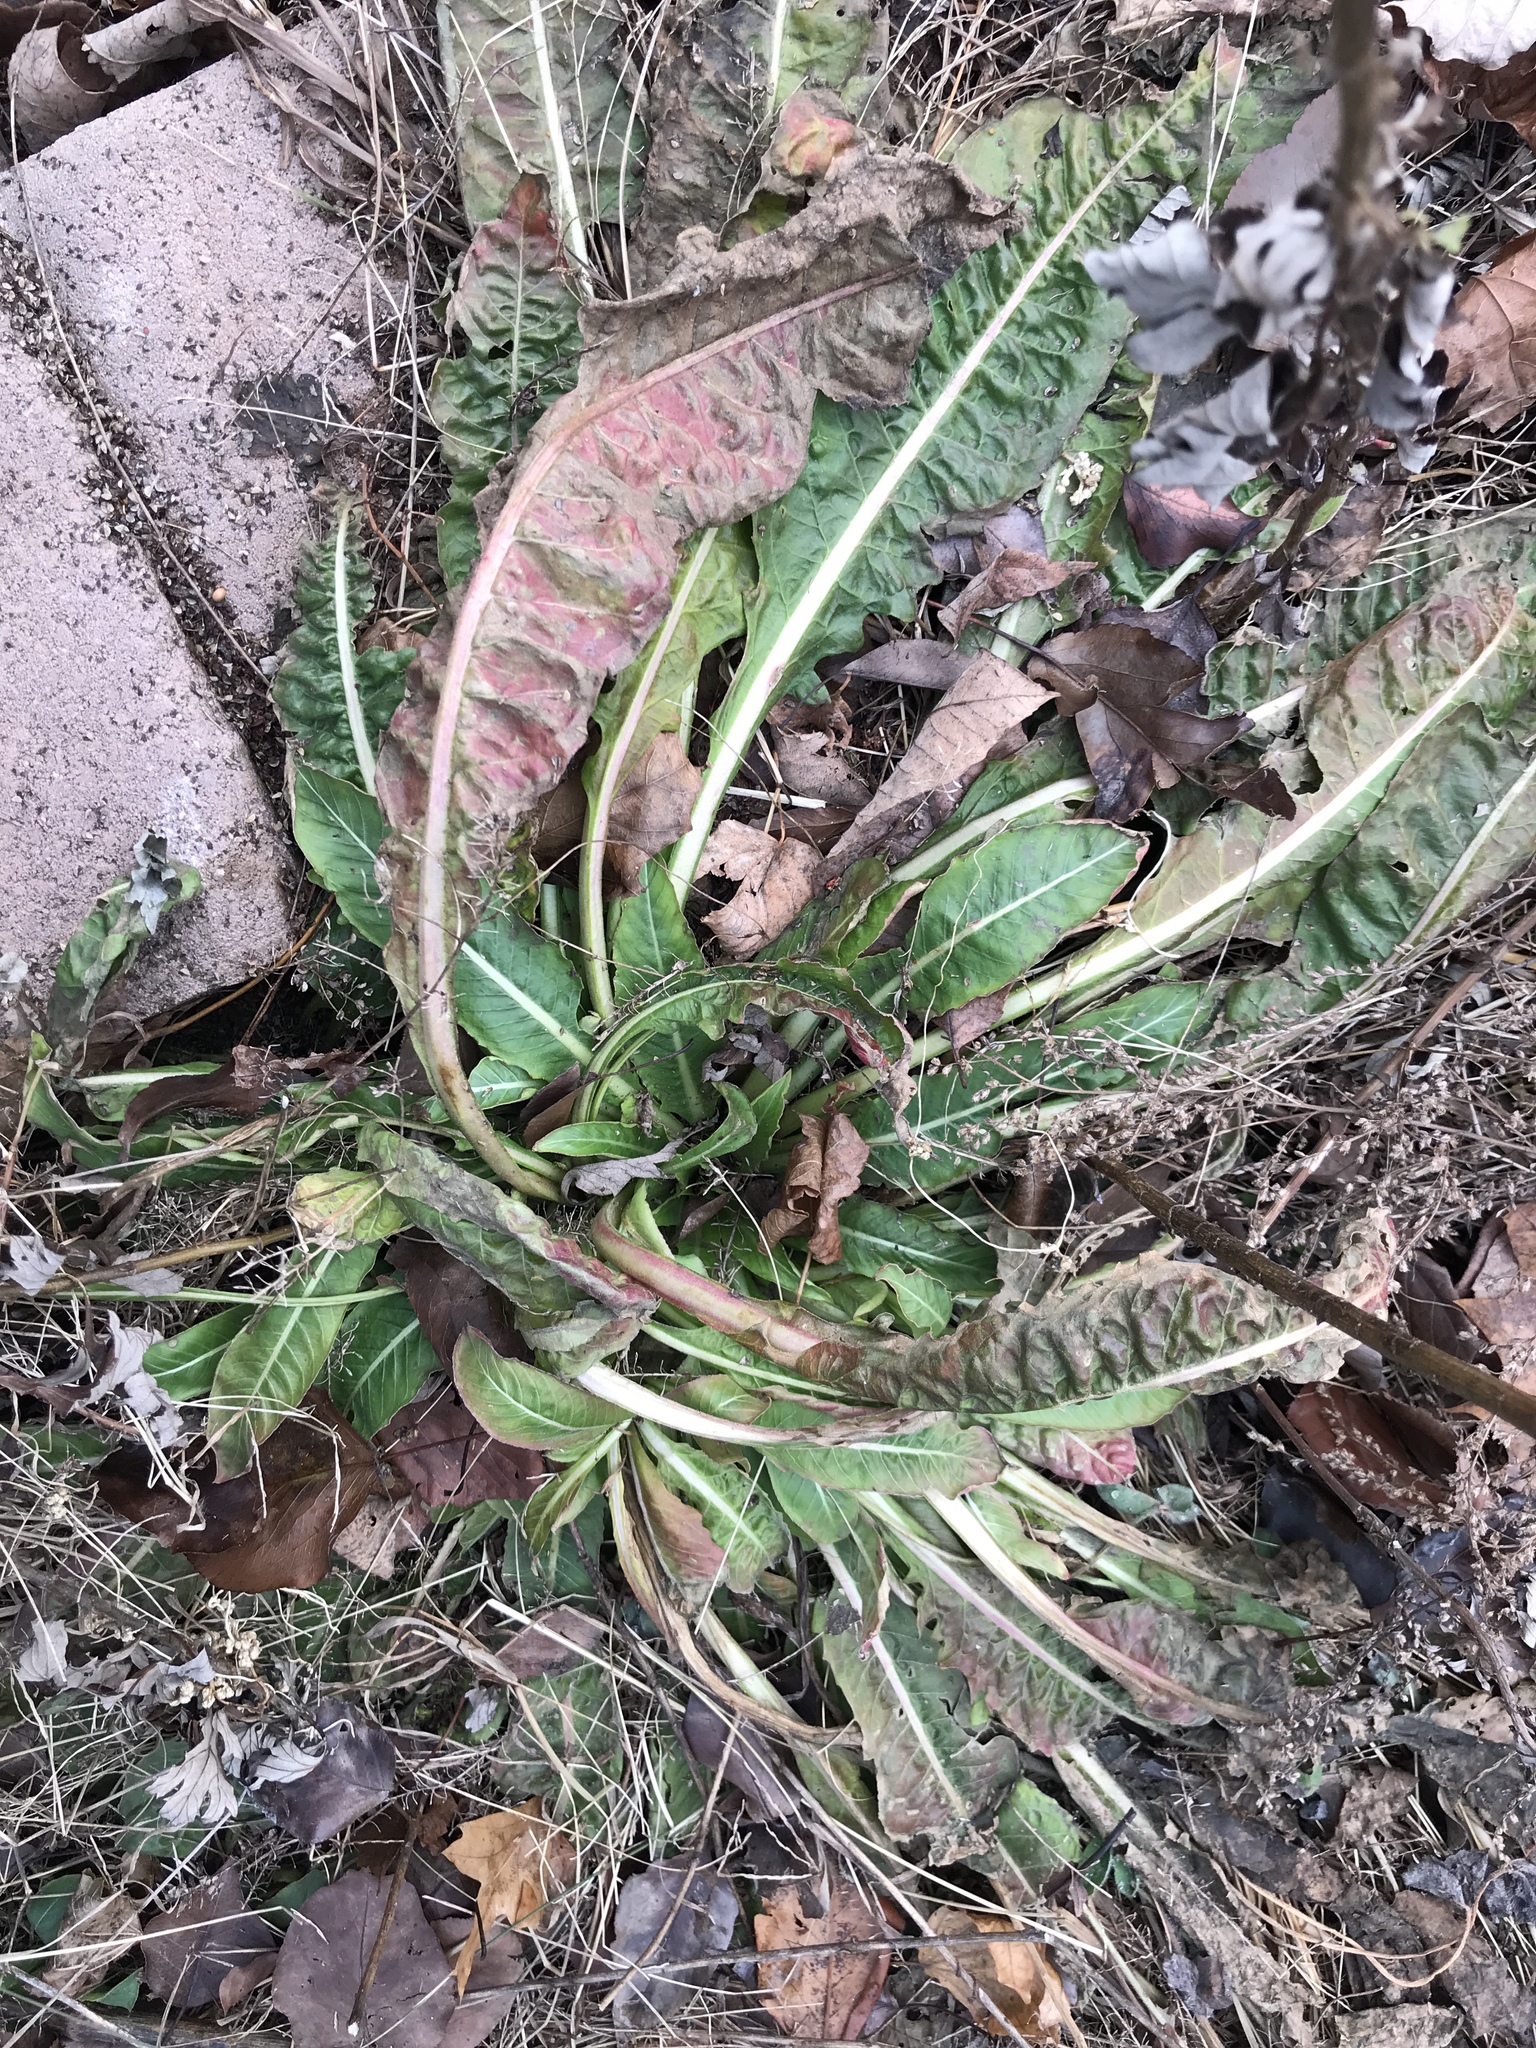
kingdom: Plantae
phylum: Tracheophyta
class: Magnoliopsida
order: Myrtales
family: Onagraceae
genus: Oenothera
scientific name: Oenothera biennis
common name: Common evening-primrose
